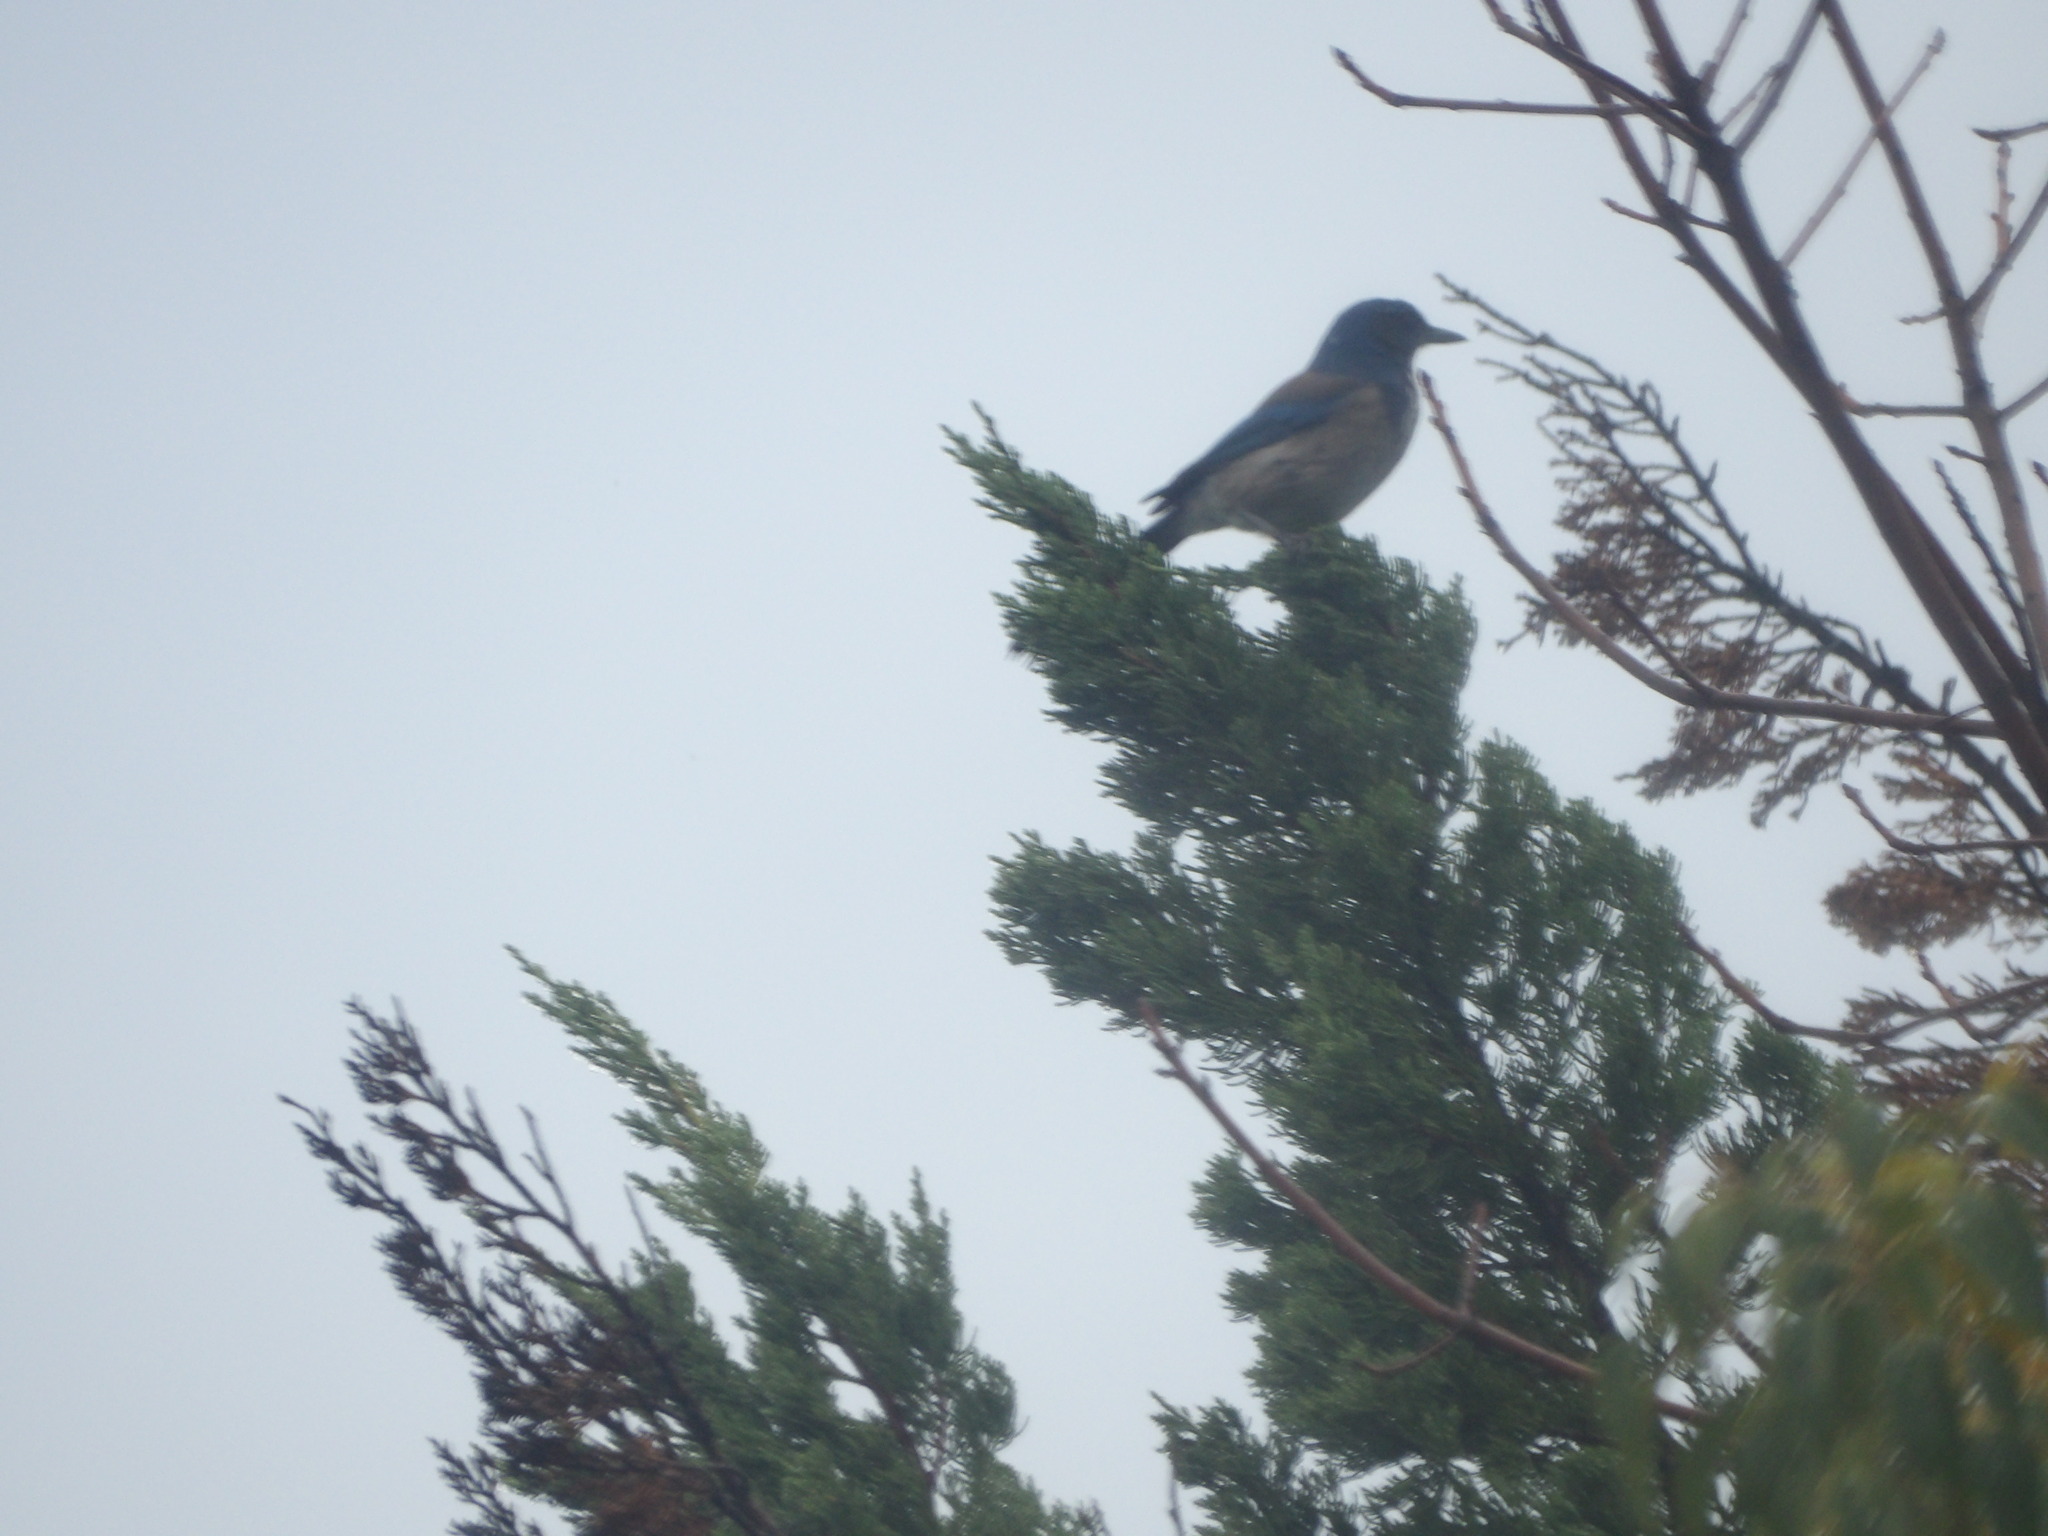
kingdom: Animalia
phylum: Chordata
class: Aves
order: Passeriformes
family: Corvidae
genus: Aphelocoma
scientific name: Aphelocoma californica
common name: California scrub-jay
